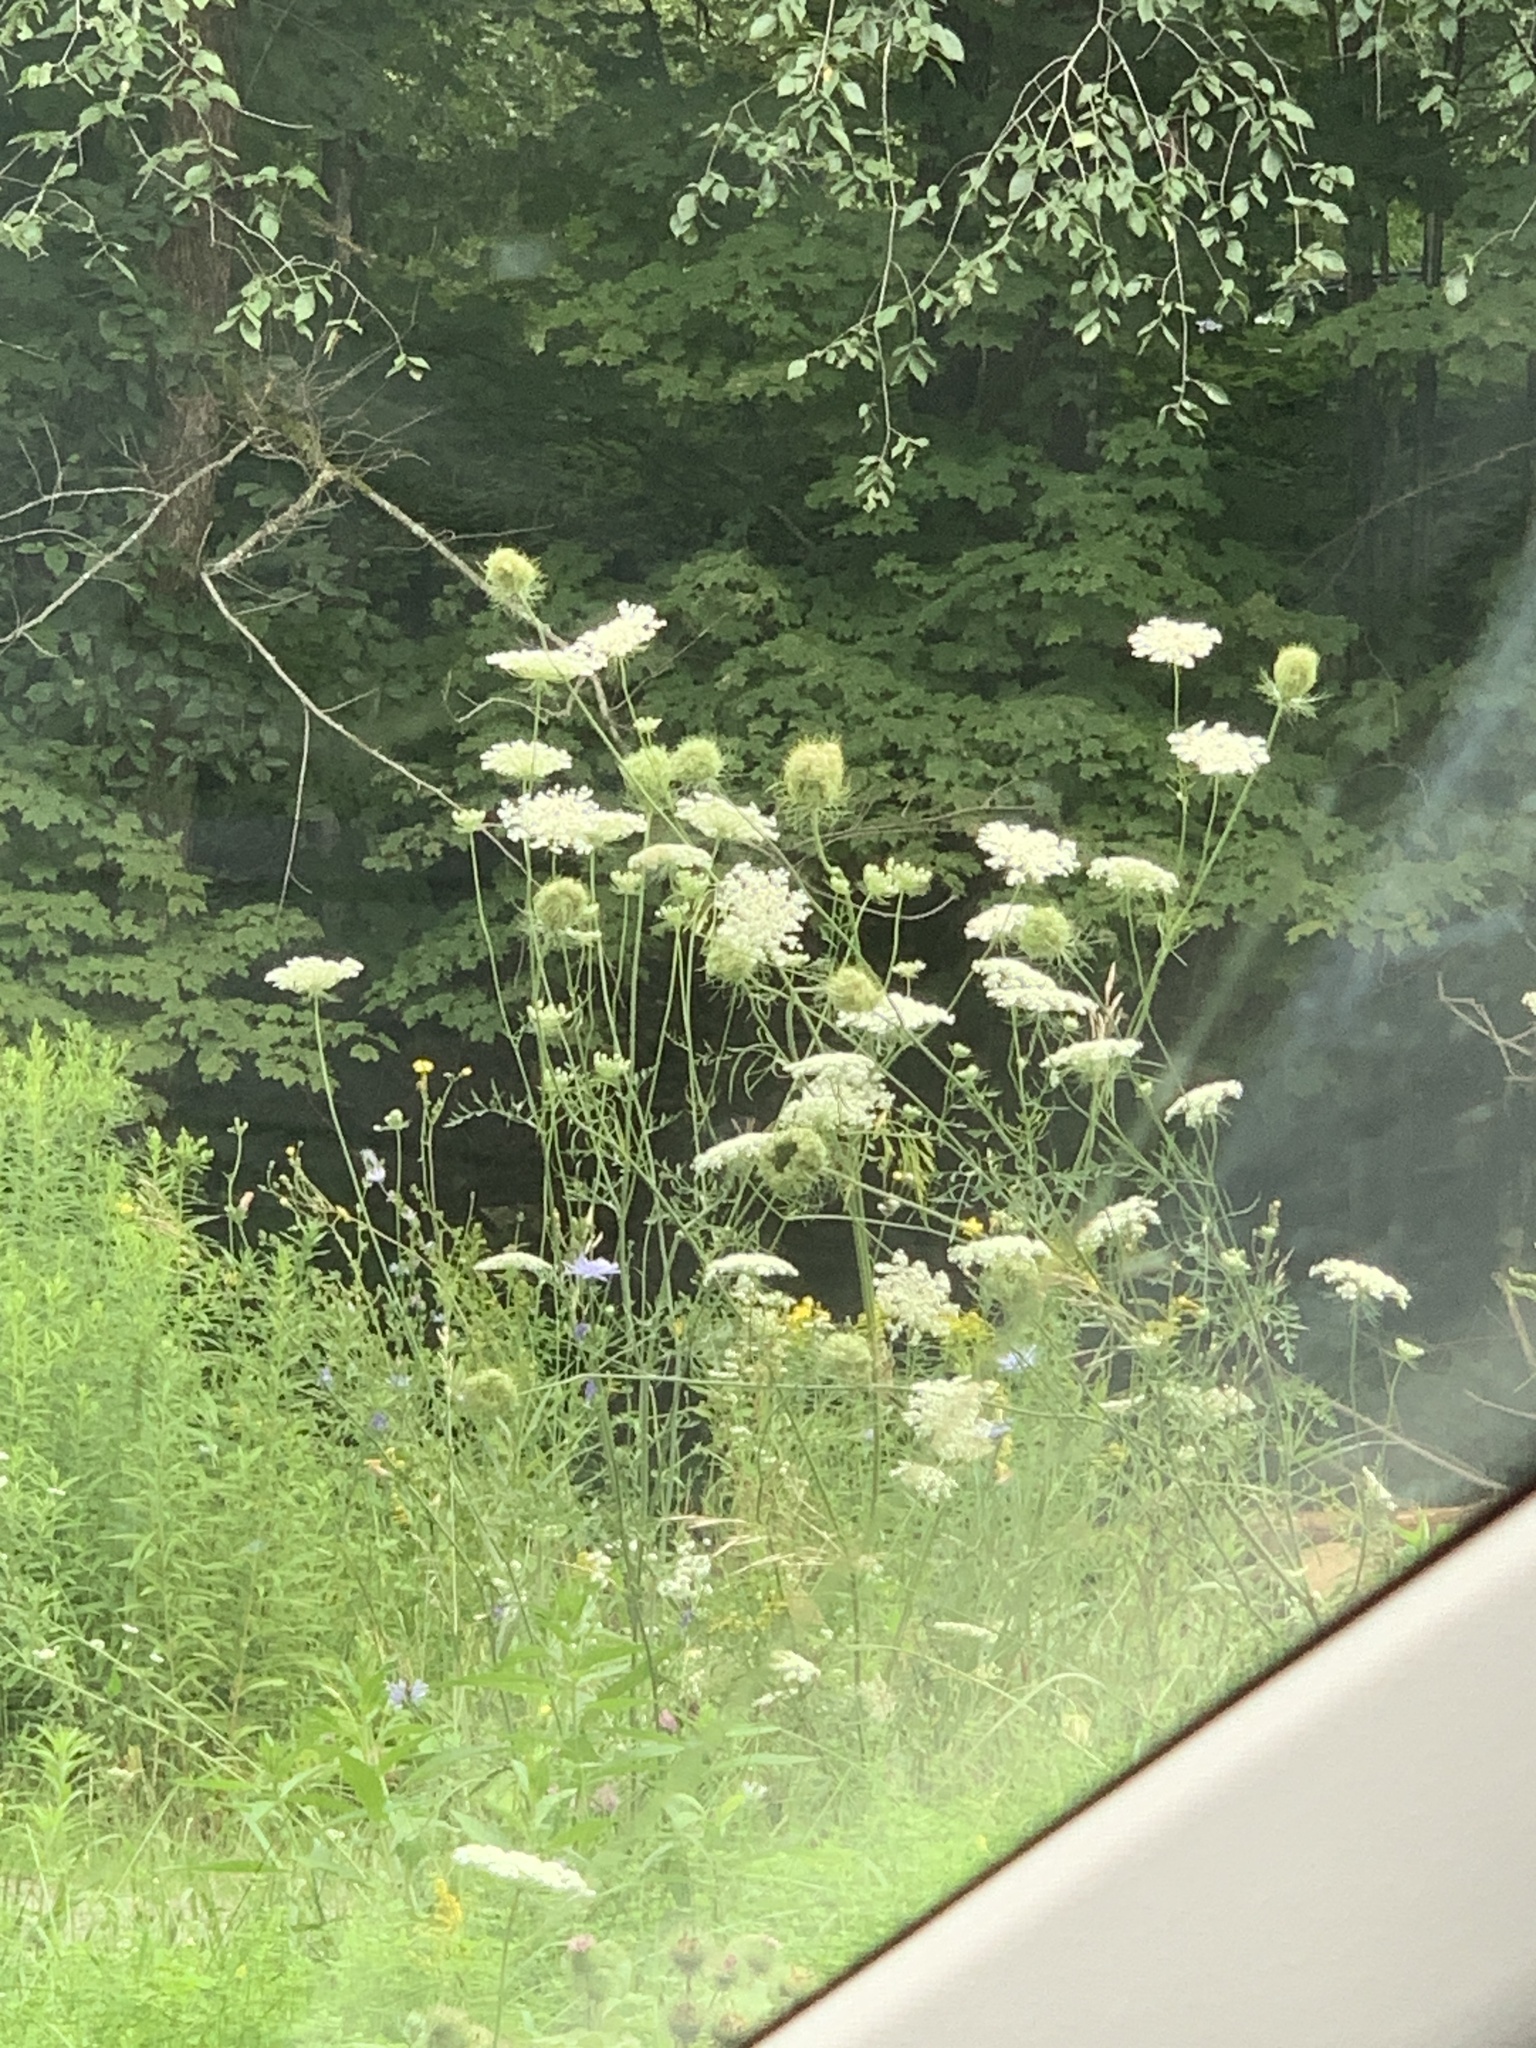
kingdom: Plantae
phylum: Tracheophyta
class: Magnoliopsida
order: Apiales
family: Apiaceae
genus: Daucus
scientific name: Daucus carota
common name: Wild carrot
